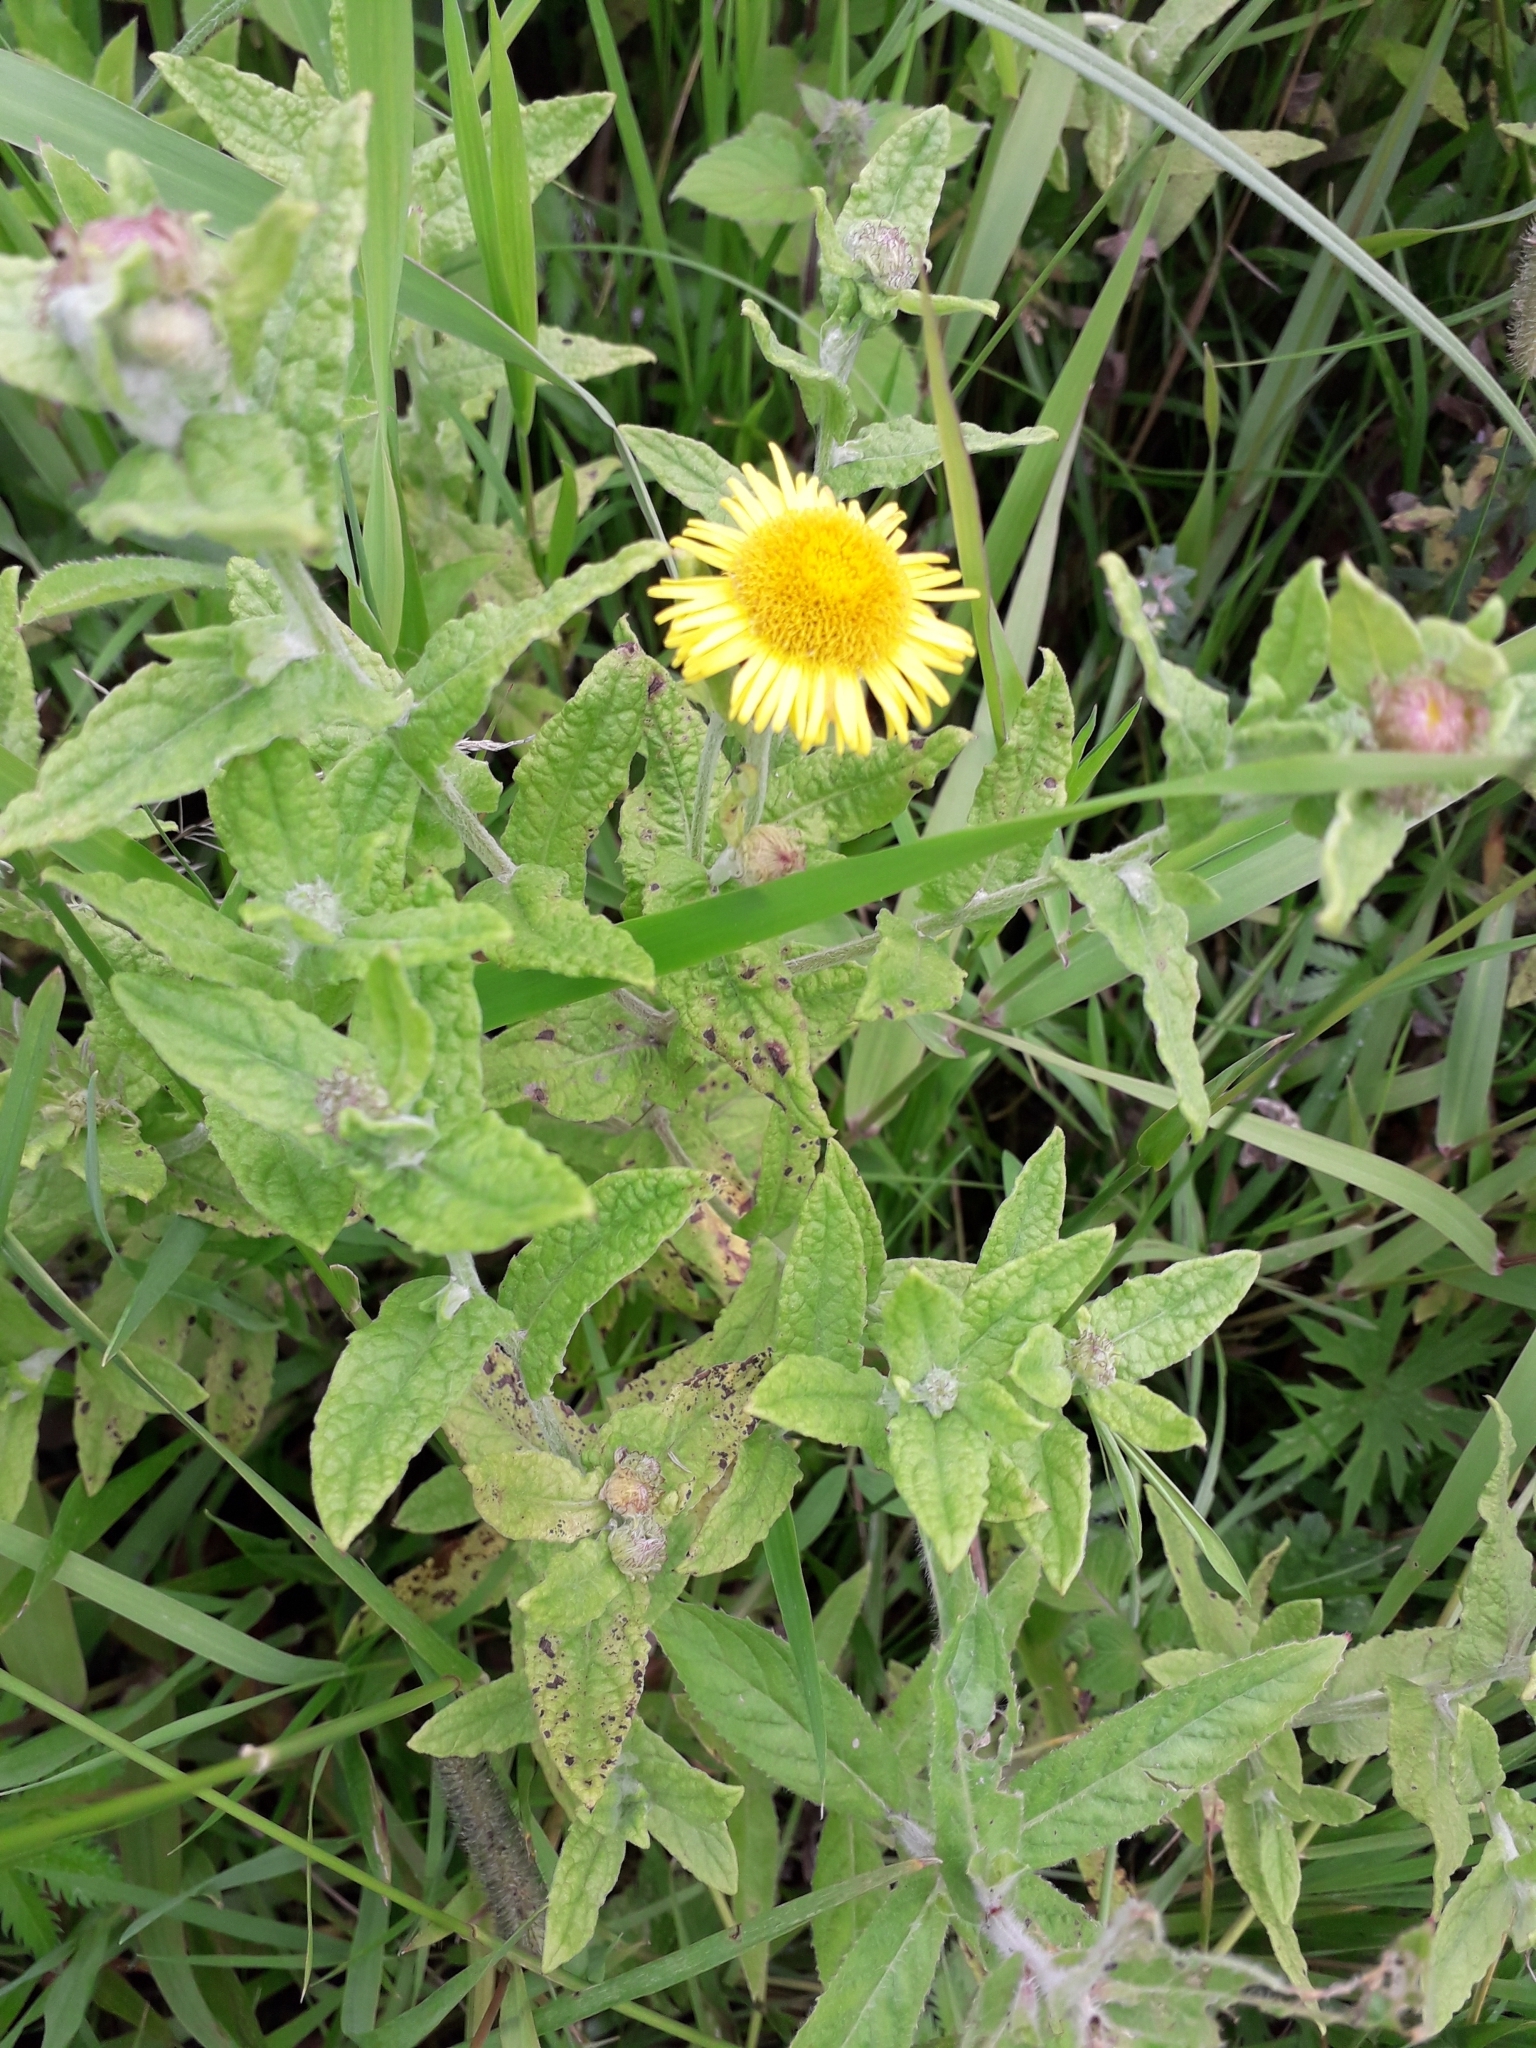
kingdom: Plantae
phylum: Tracheophyta
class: Magnoliopsida
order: Asterales
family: Asteraceae
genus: Pulicaria
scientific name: Pulicaria dysenterica
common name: Common fleabane
